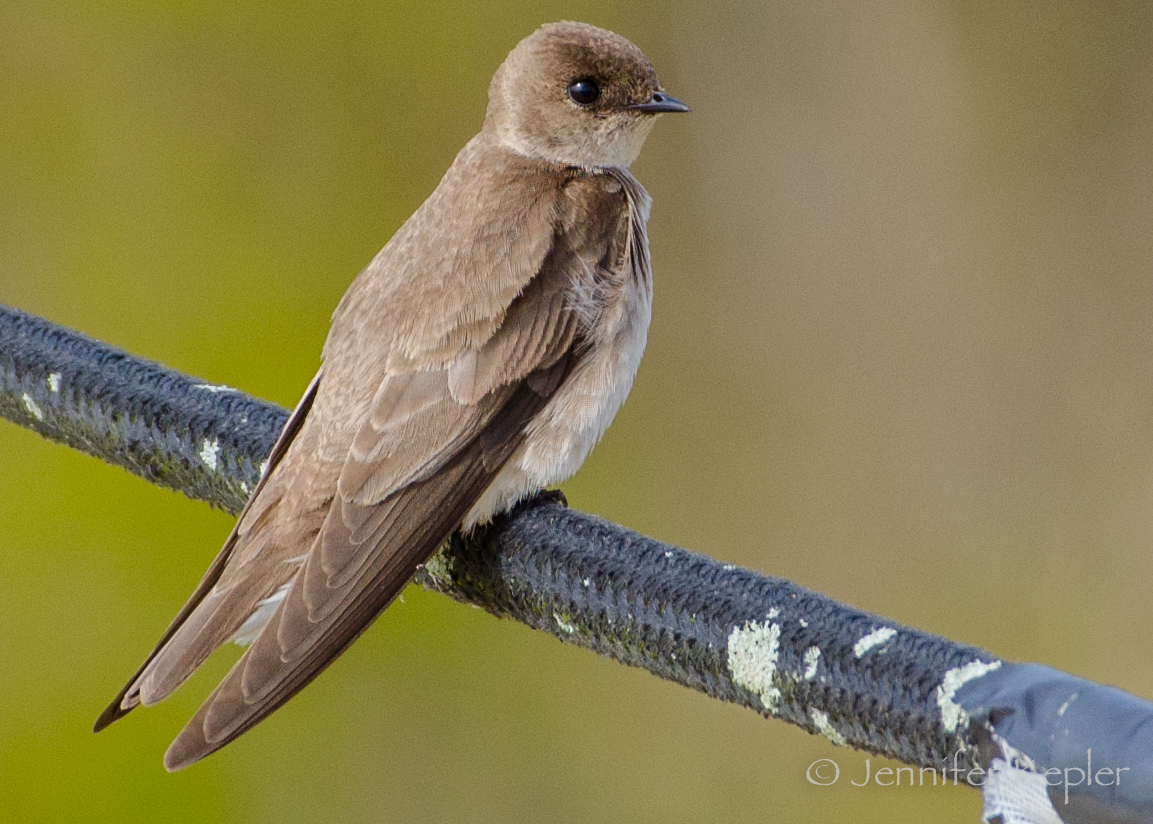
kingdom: Animalia
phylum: Chordata
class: Aves
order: Passeriformes
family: Hirundinidae
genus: Stelgidopteryx
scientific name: Stelgidopteryx serripennis
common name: Northern rough-winged swallow
